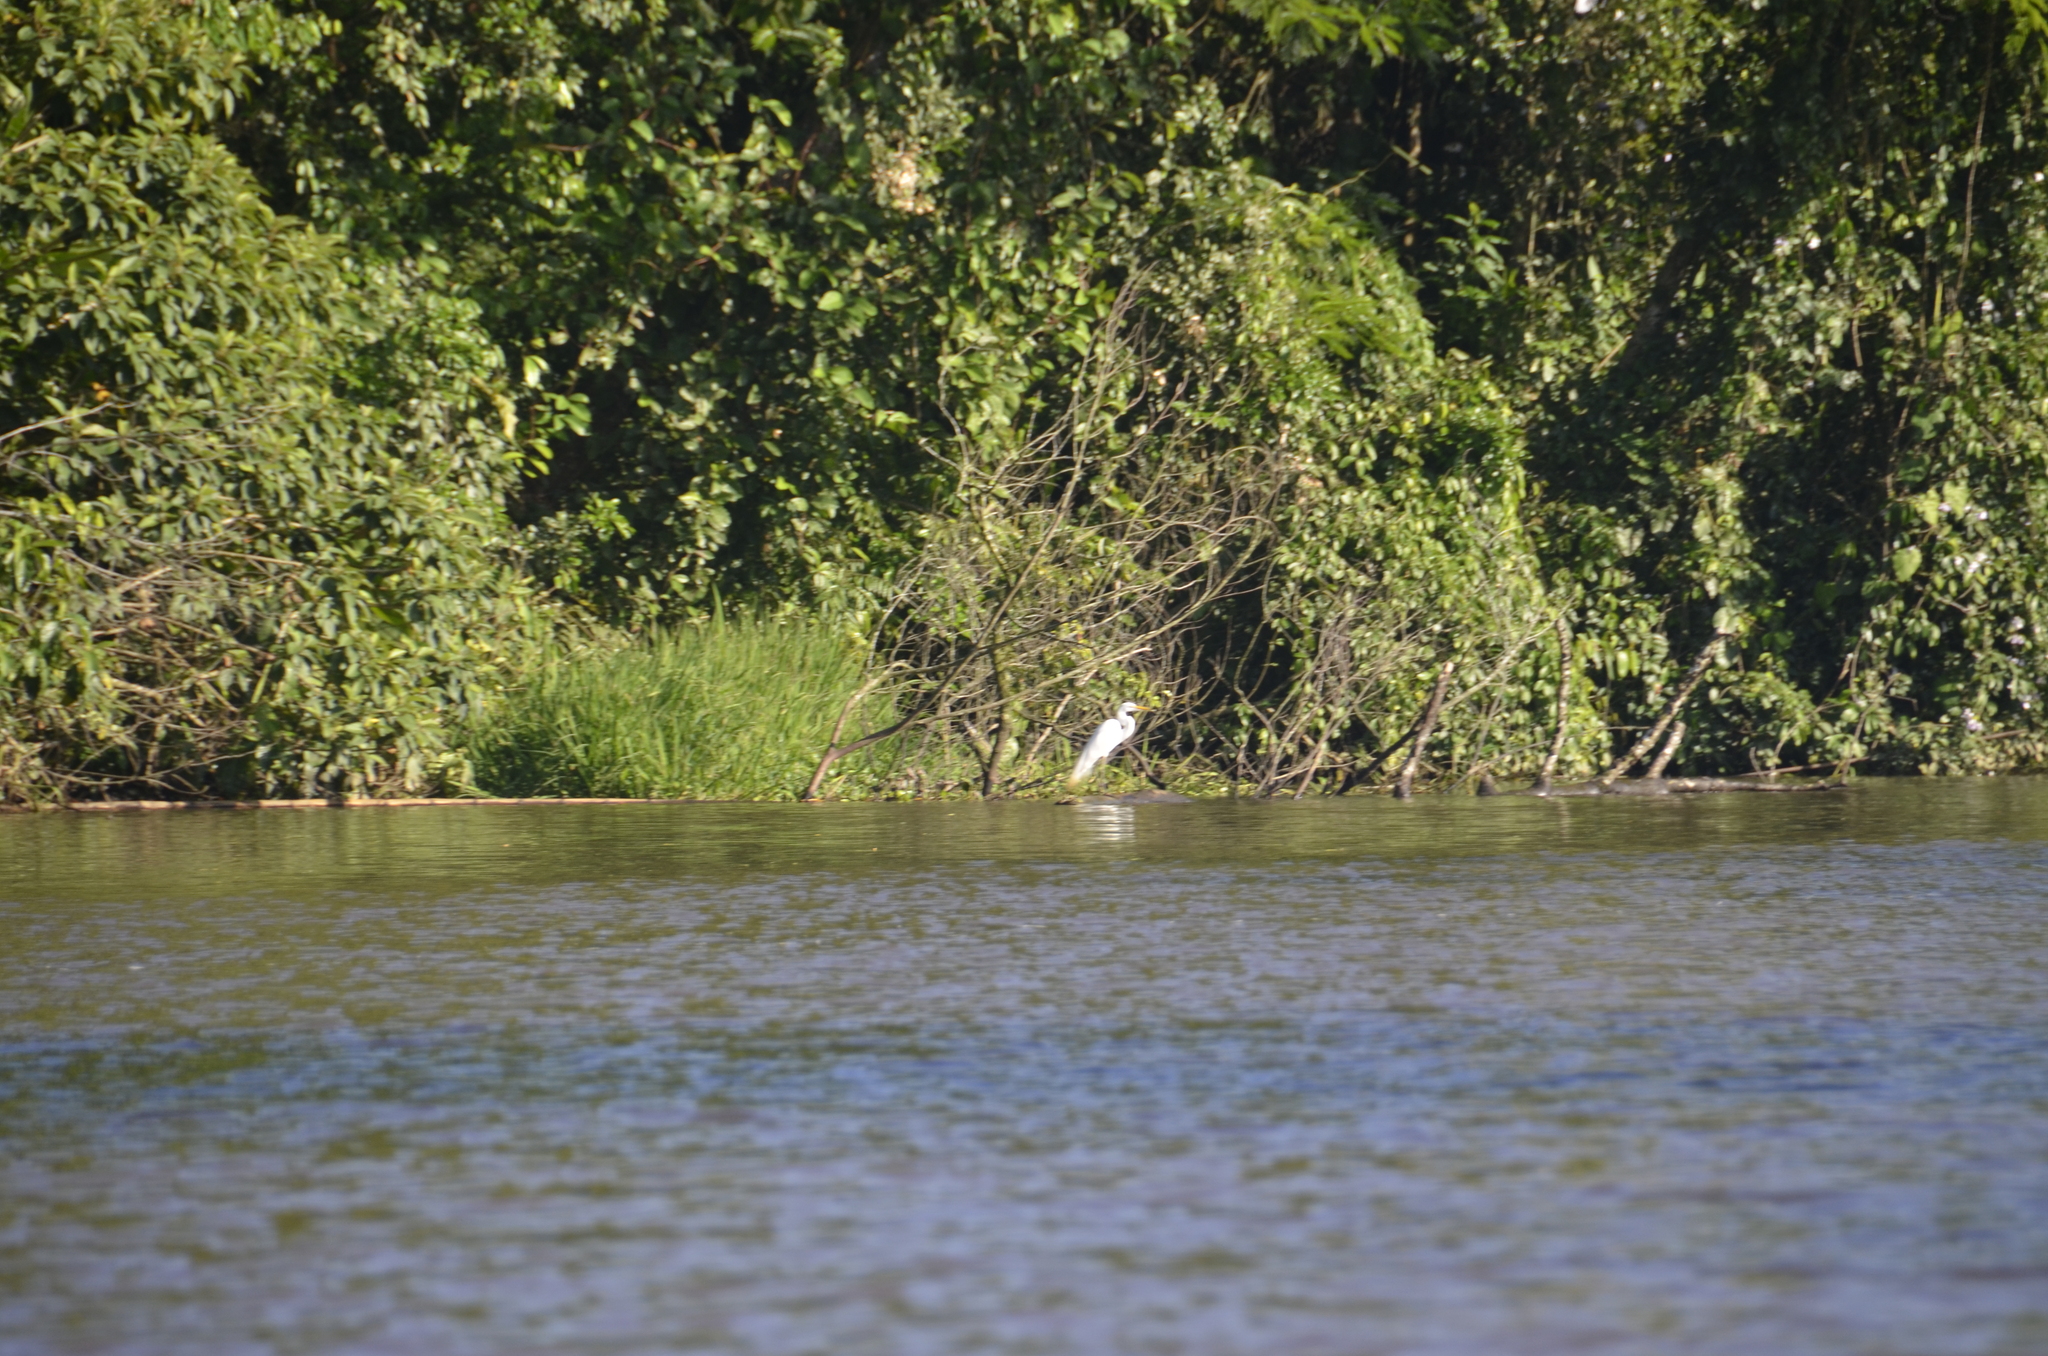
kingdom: Animalia
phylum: Chordata
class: Aves
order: Pelecaniformes
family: Ardeidae
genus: Ardea
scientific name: Ardea alba
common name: Great egret
